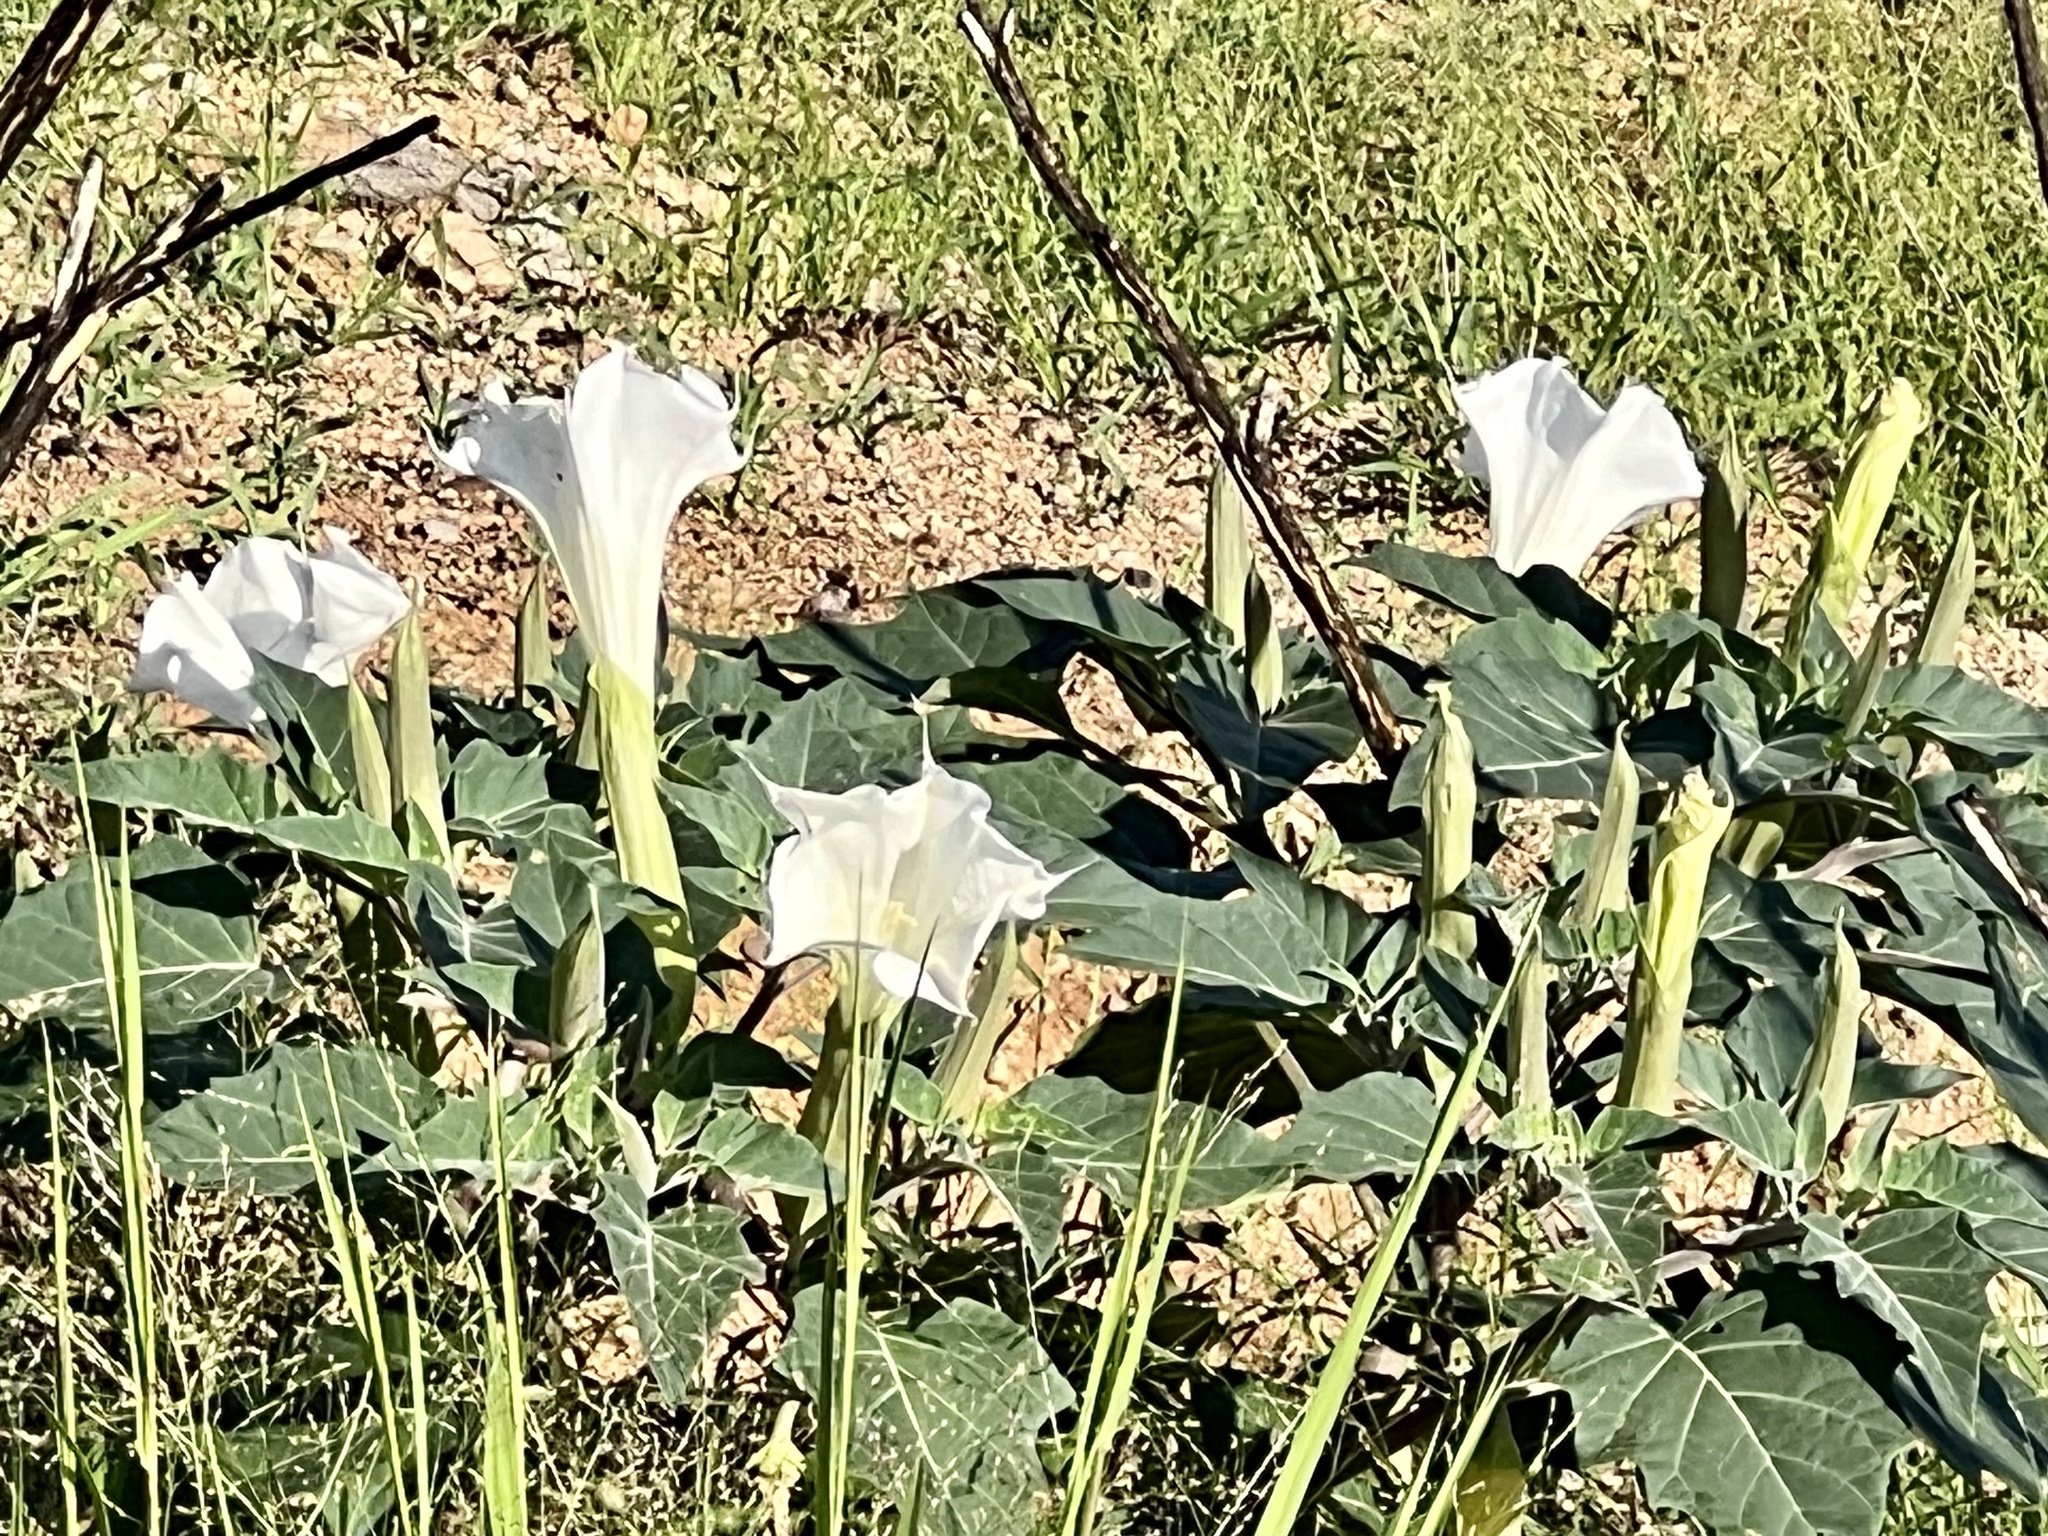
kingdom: Plantae
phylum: Tracheophyta
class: Magnoliopsida
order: Solanales
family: Solanaceae
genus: Datura
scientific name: Datura wrightii
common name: Sacred thorn-apple
